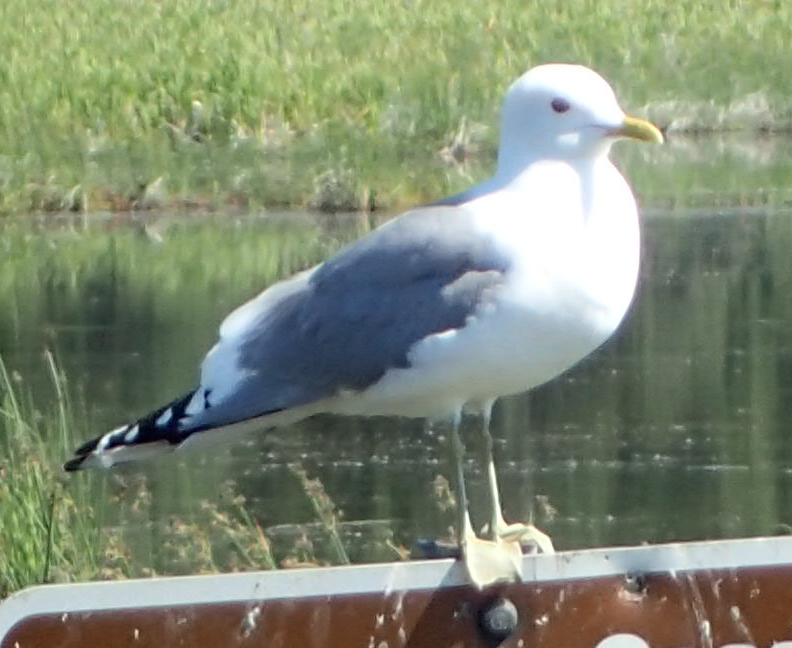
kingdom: Animalia
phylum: Chordata
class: Aves
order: Charadriiformes
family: Laridae
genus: Larus
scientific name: Larus brachyrhynchus
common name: Short-billed gull
